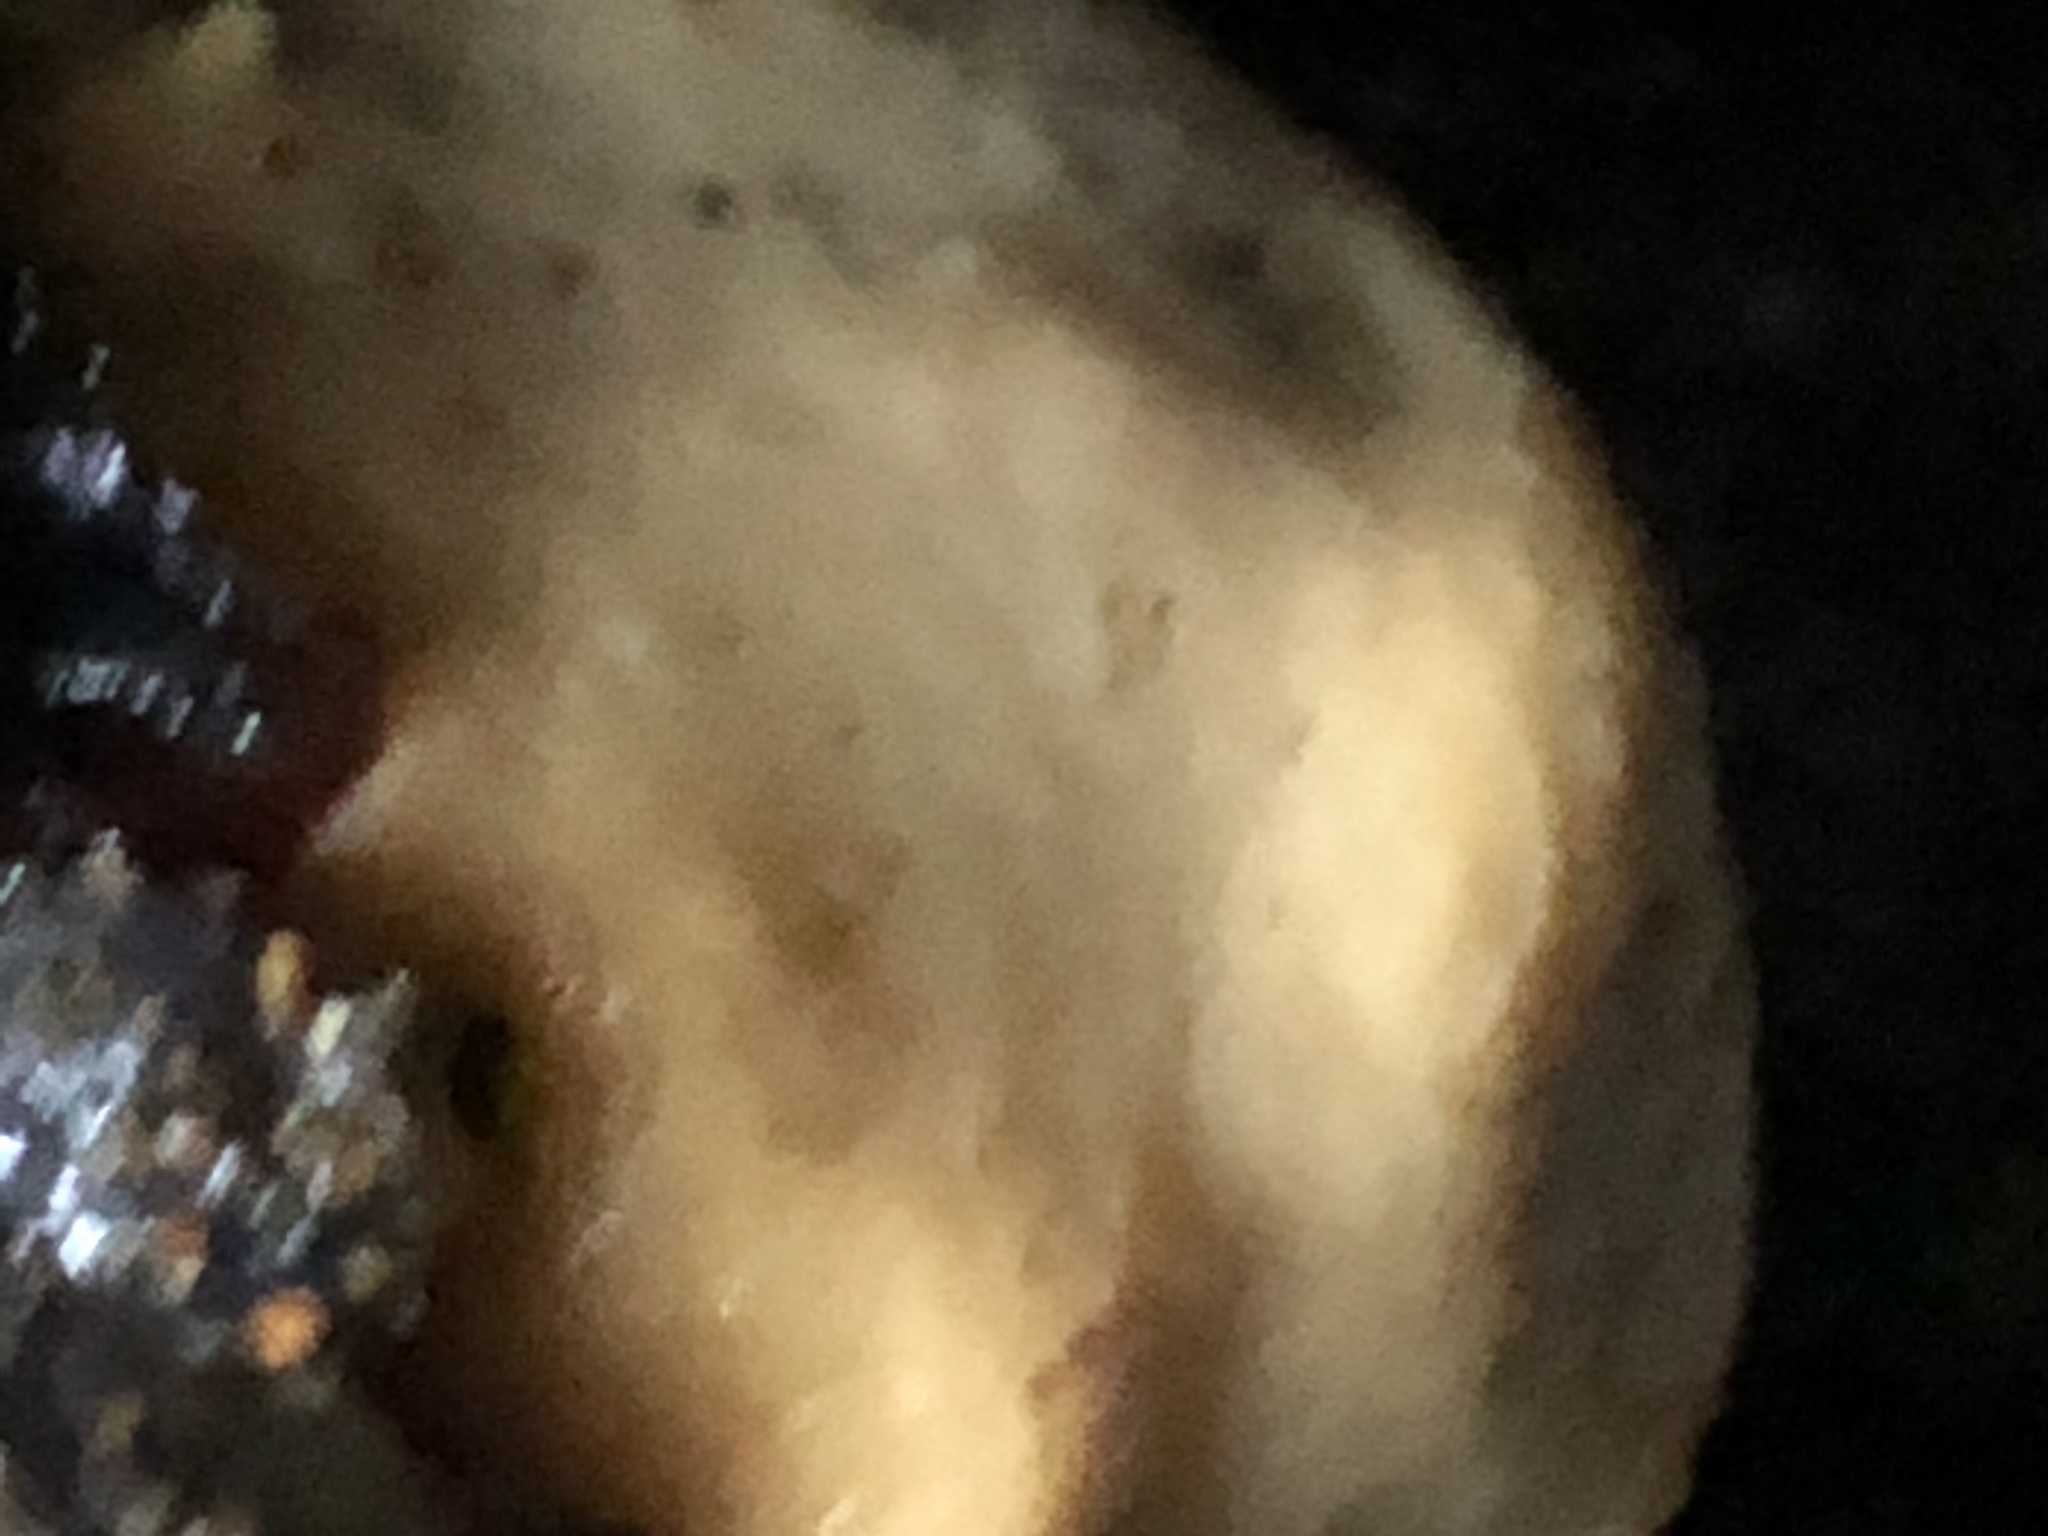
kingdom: Animalia
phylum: Porifera
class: Demospongiae
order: Suberitida
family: Suberitidae
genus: Suberites
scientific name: Suberites lambei
